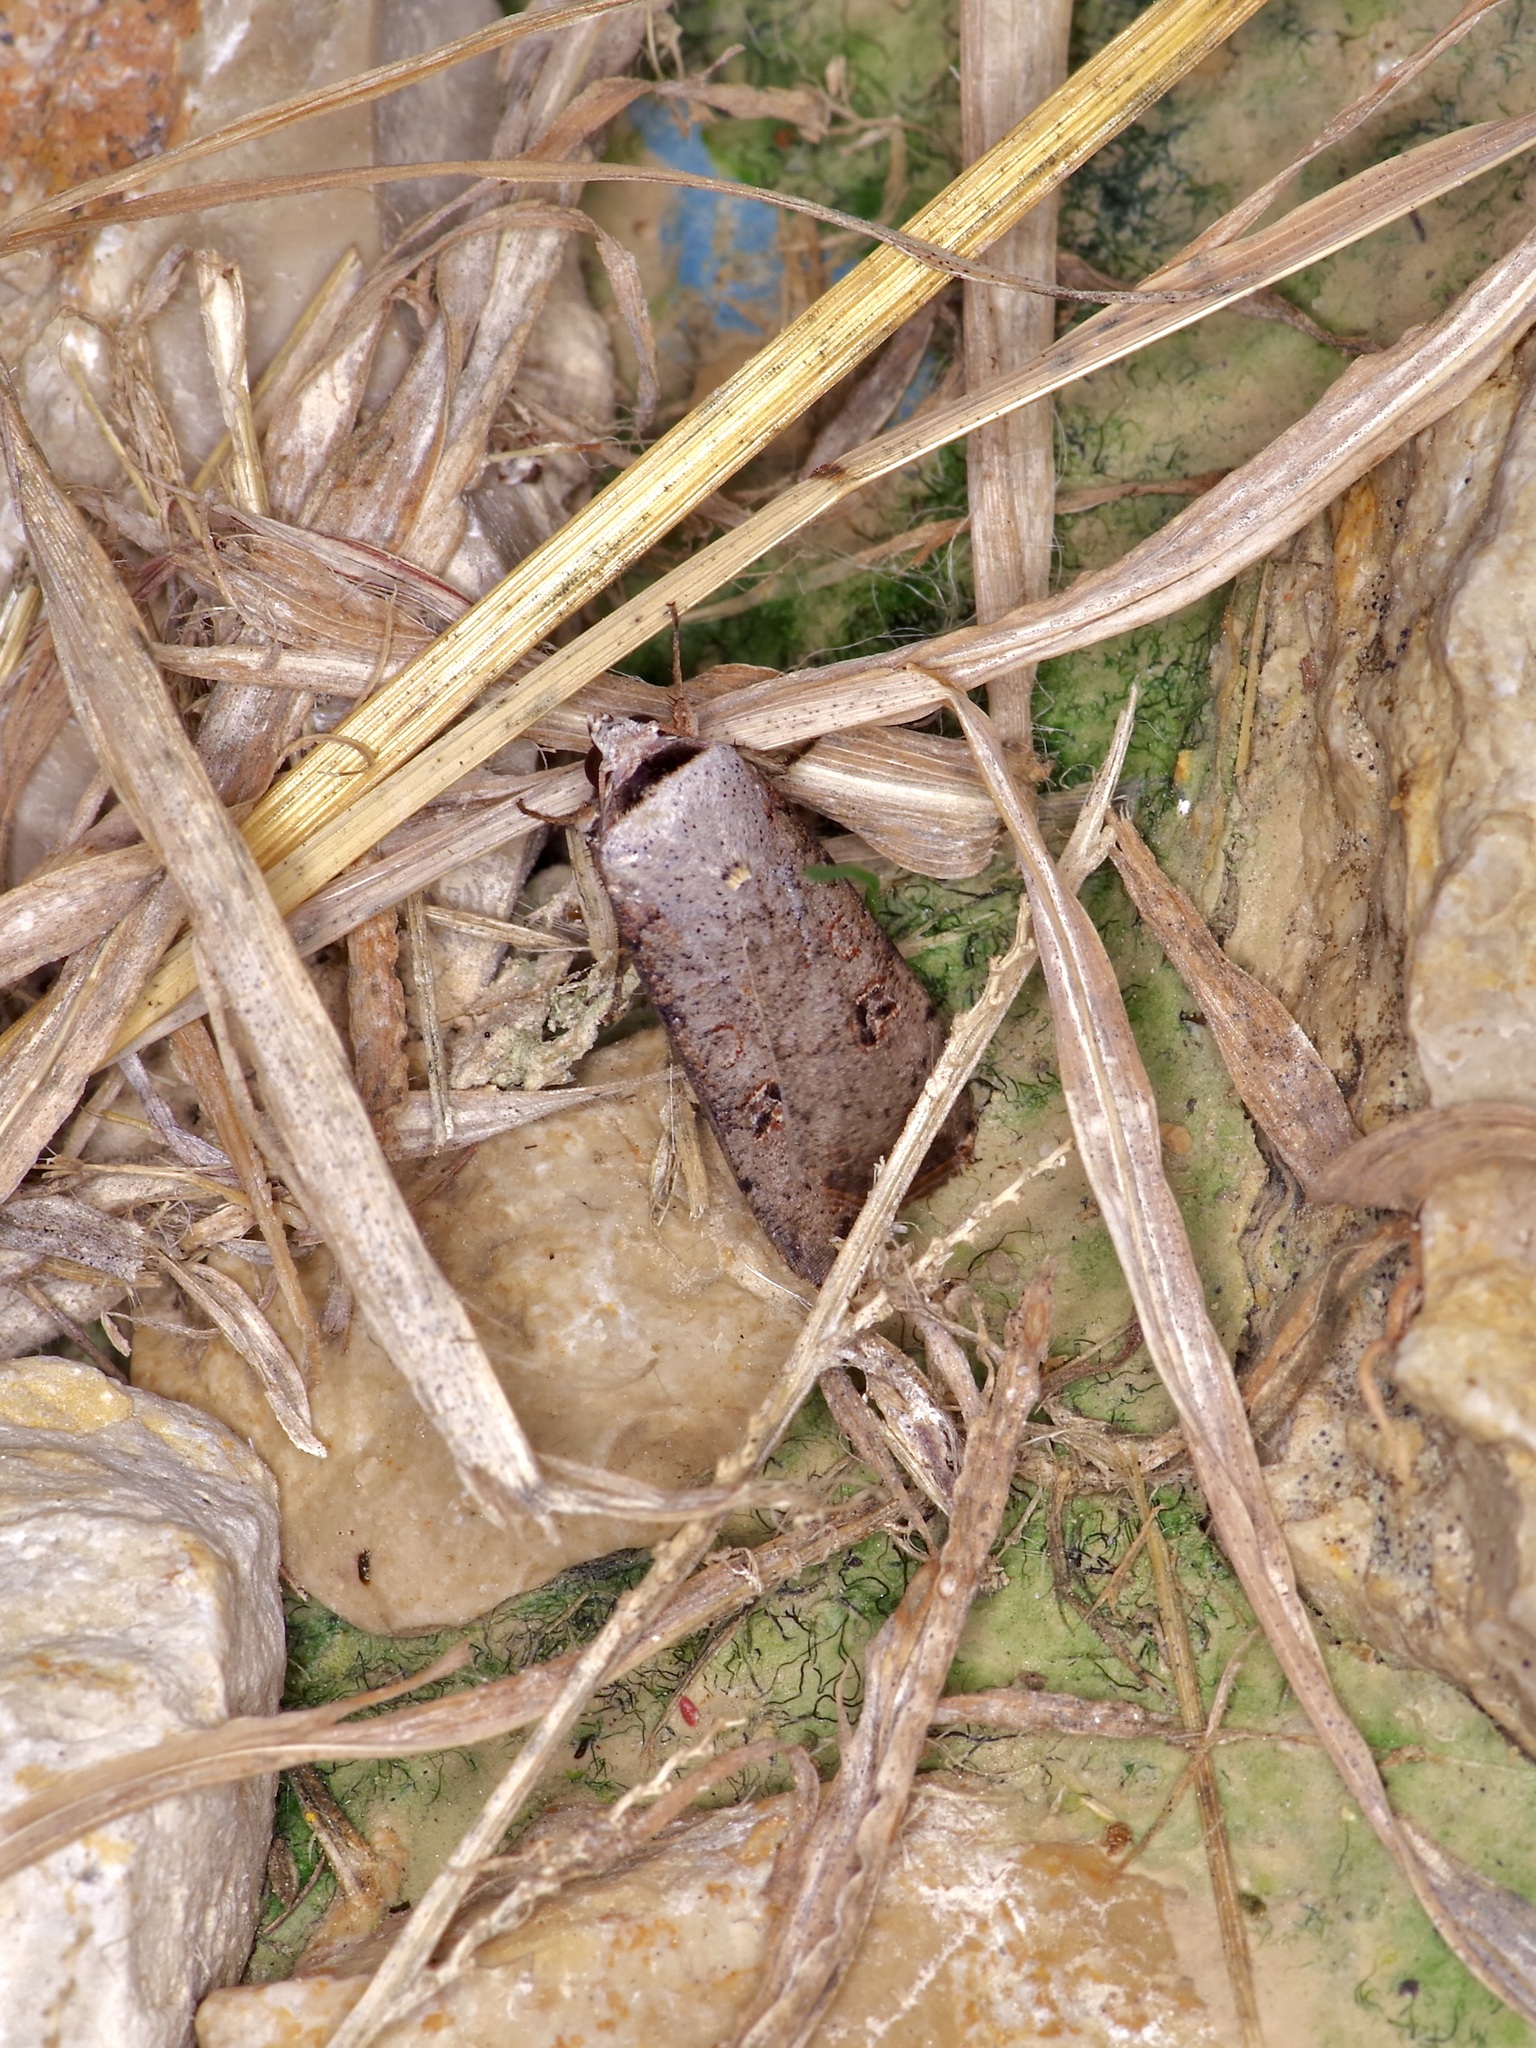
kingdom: Animalia
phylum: Arthropoda
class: Insecta
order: Lepidoptera
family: Noctuidae
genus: Anicla
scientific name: Anicla infecta
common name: Green cutworm
